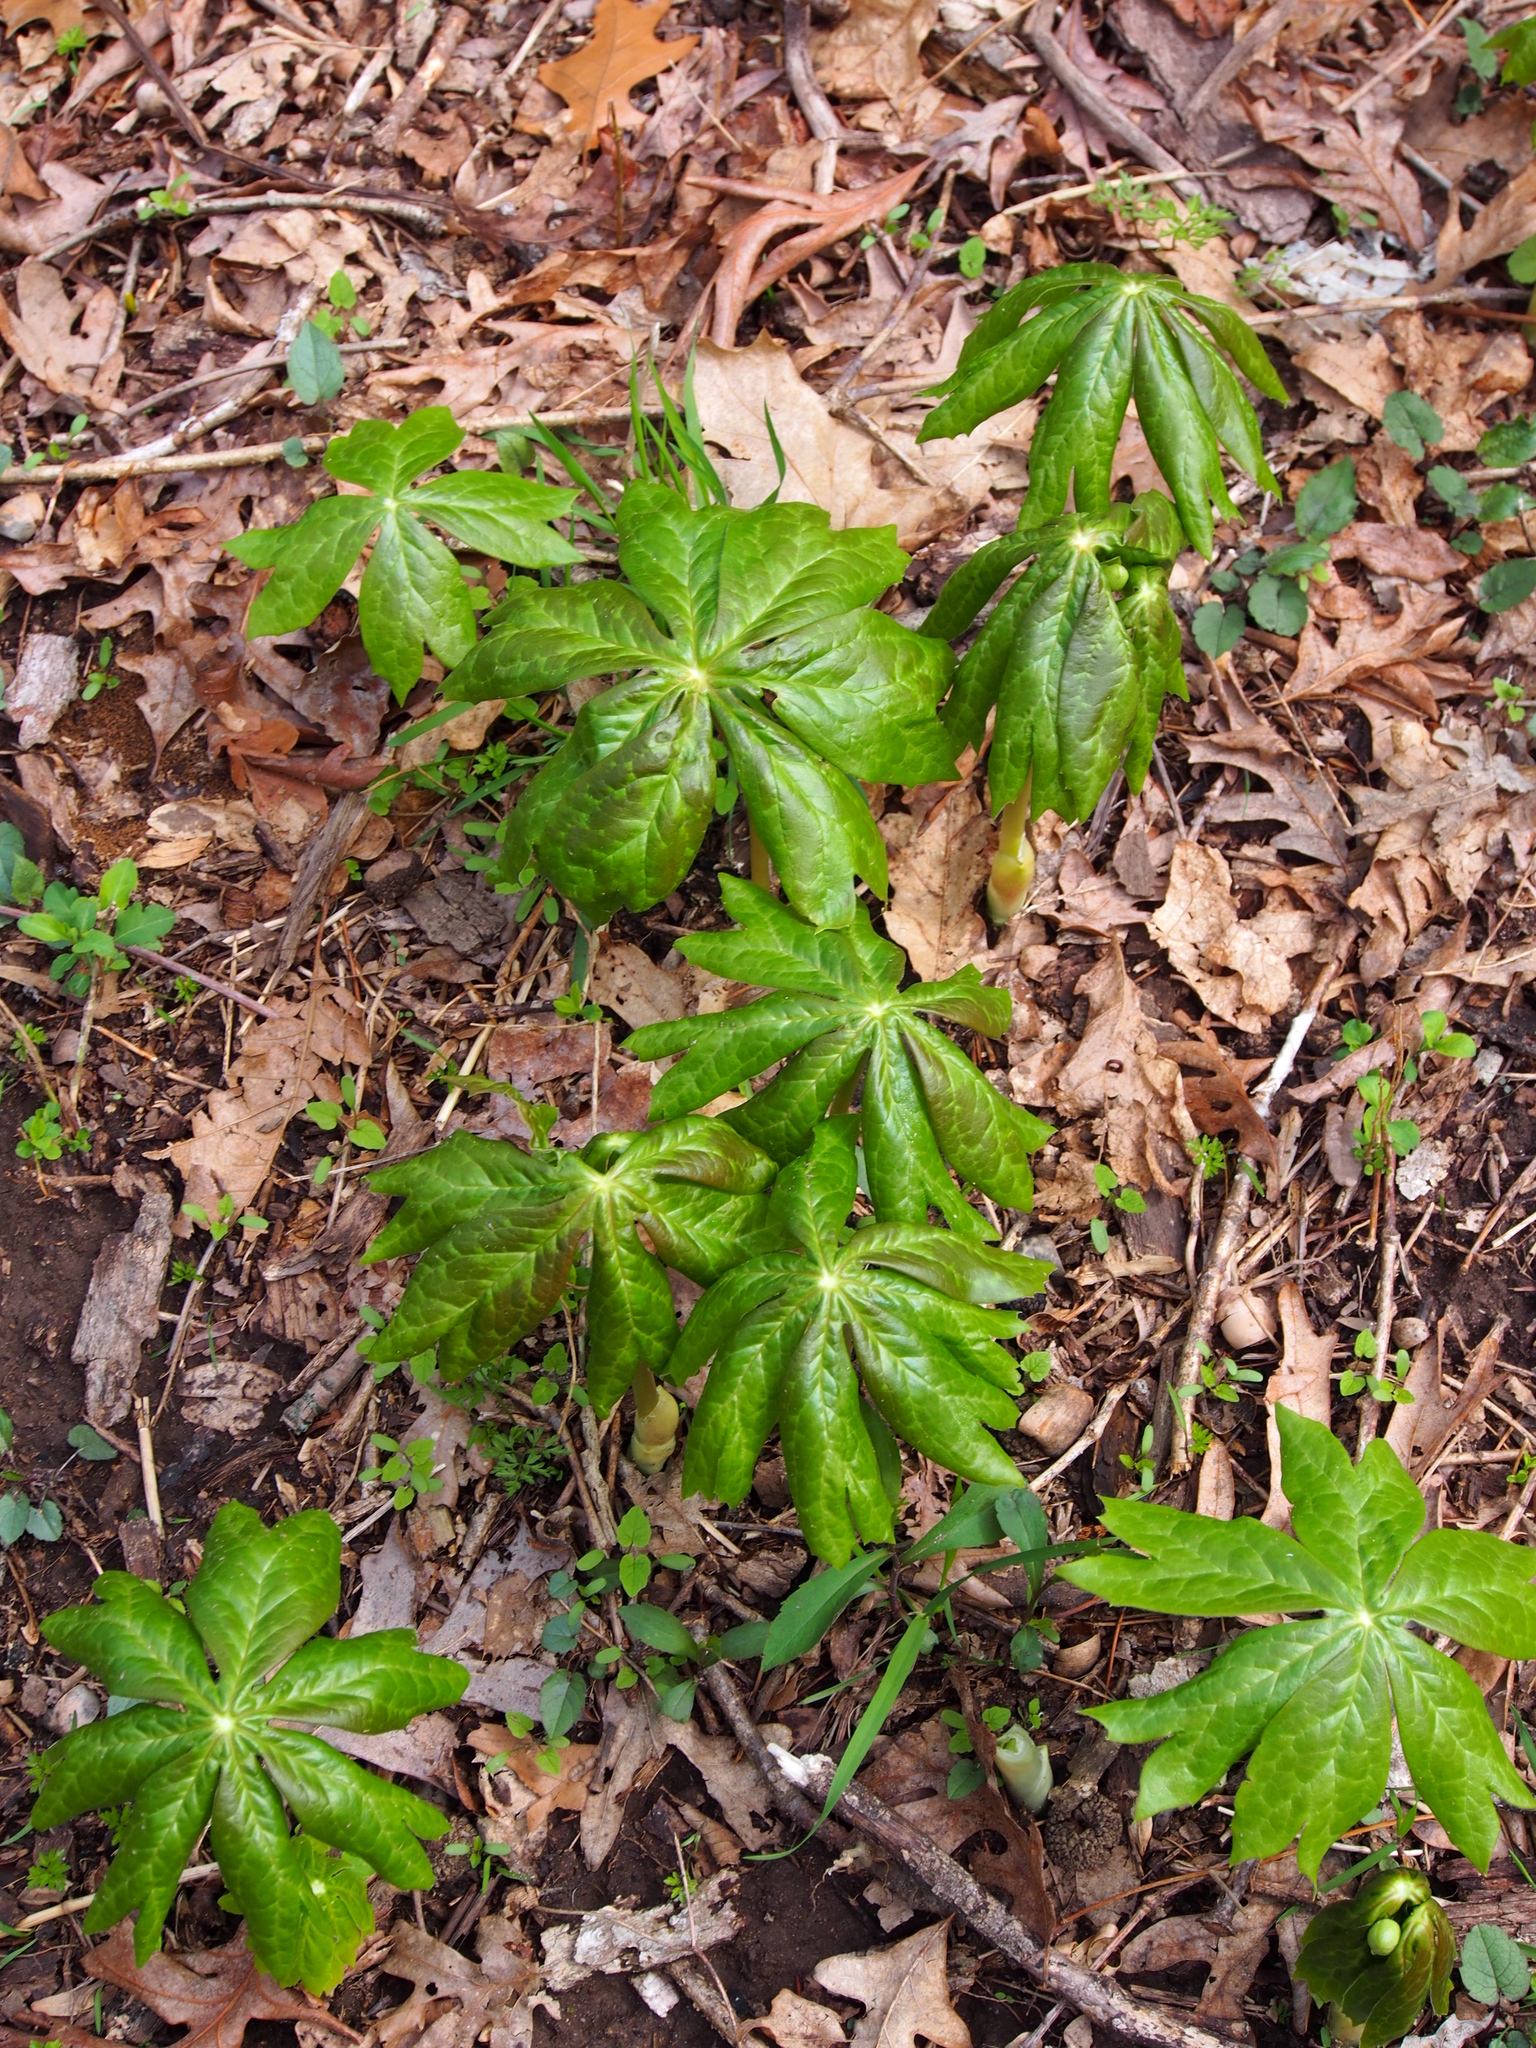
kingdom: Plantae
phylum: Tracheophyta
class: Magnoliopsida
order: Ranunculales
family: Berberidaceae
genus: Podophyllum
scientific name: Podophyllum peltatum
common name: Wild mandrake
